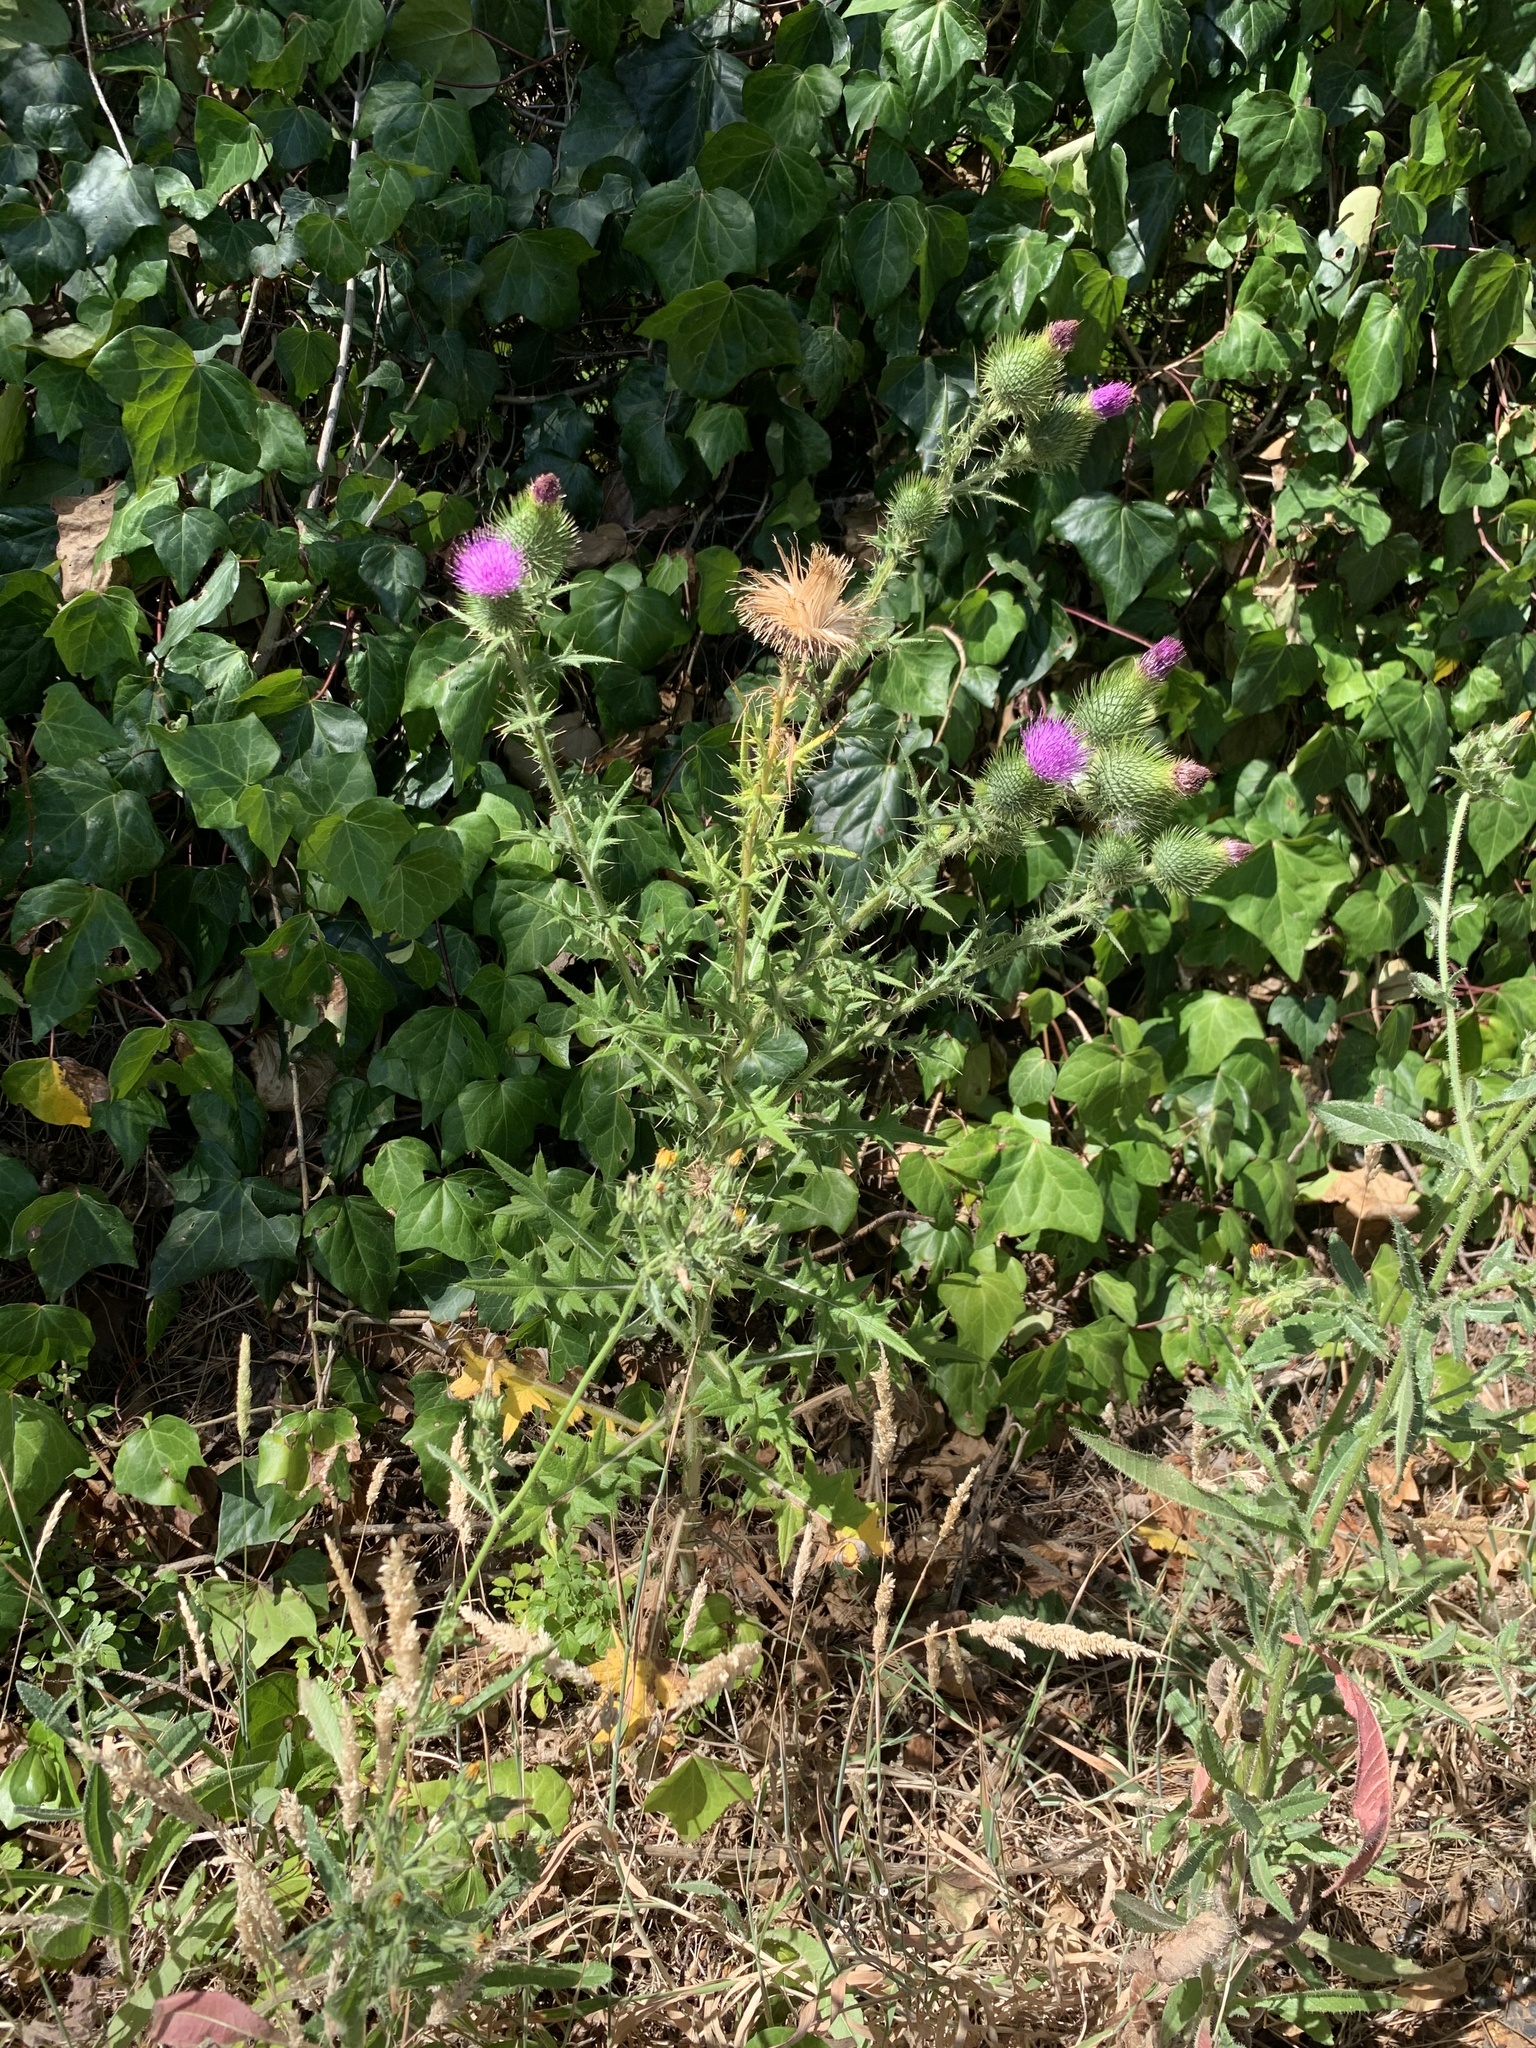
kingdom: Plantae
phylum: Tracheophyta
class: Magnoliopsida
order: Asterales
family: Asteraceae
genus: Cirsium
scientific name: Cirsium vulgare
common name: Bull thistle
